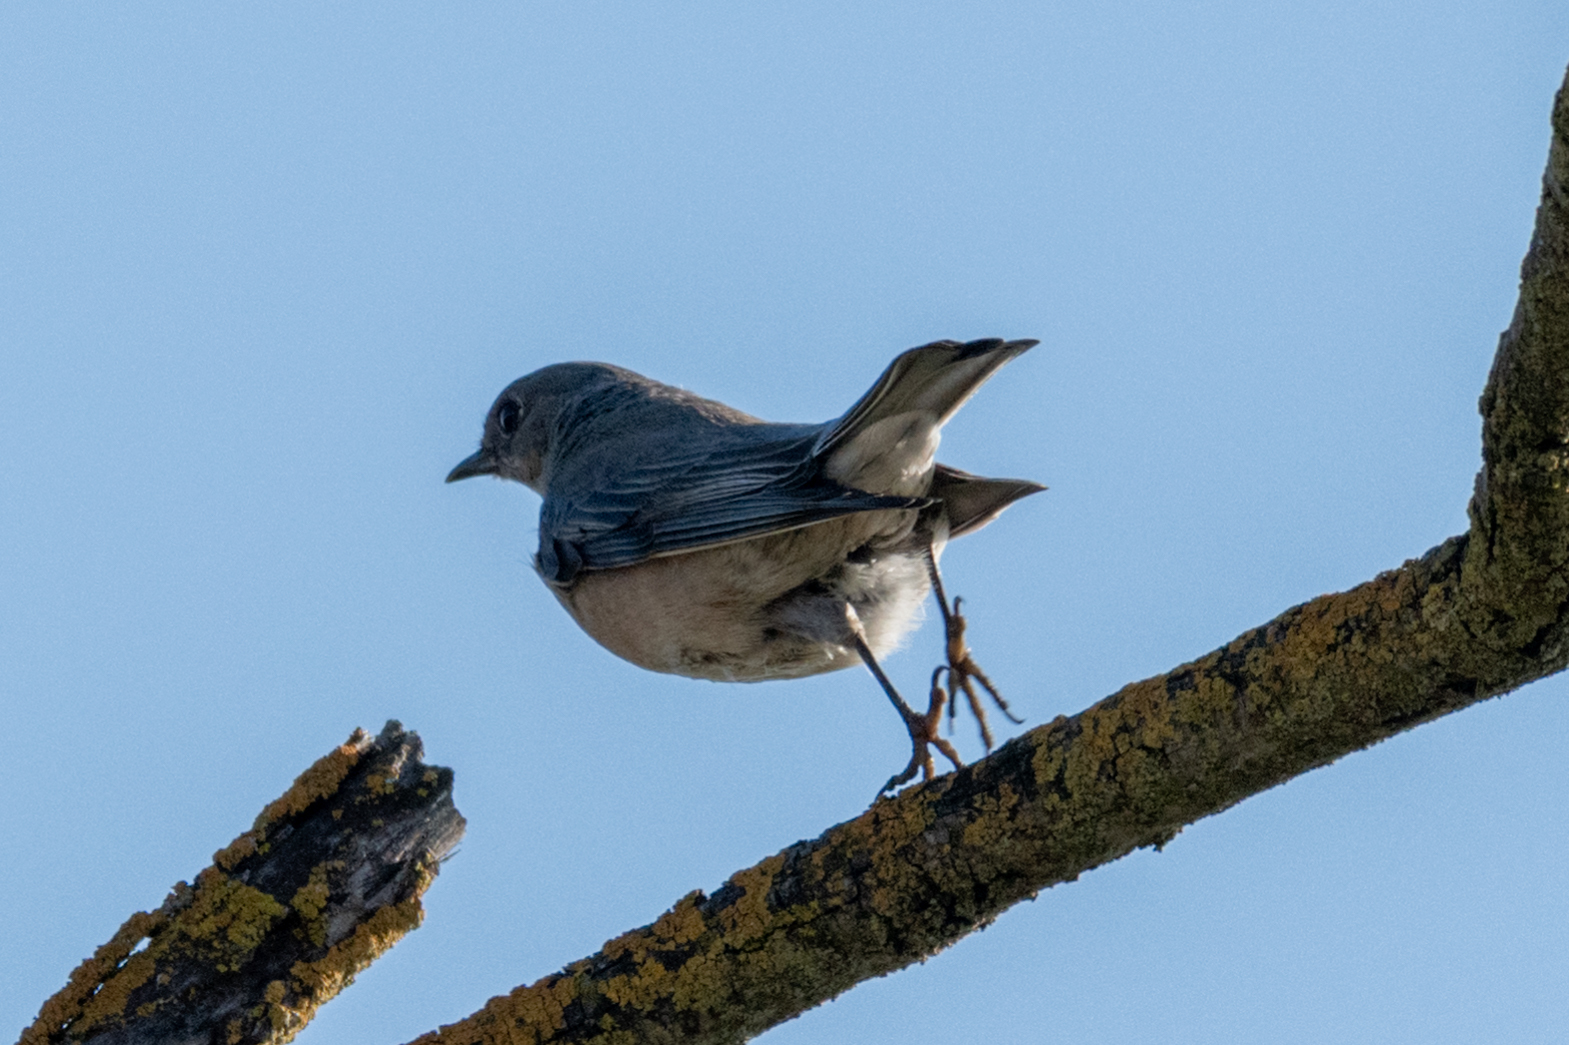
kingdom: Animalia
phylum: Chordata
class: Aves
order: Passeriformes
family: Turdidae
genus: Sialia
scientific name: Sialia mexicana
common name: Western bluebird
